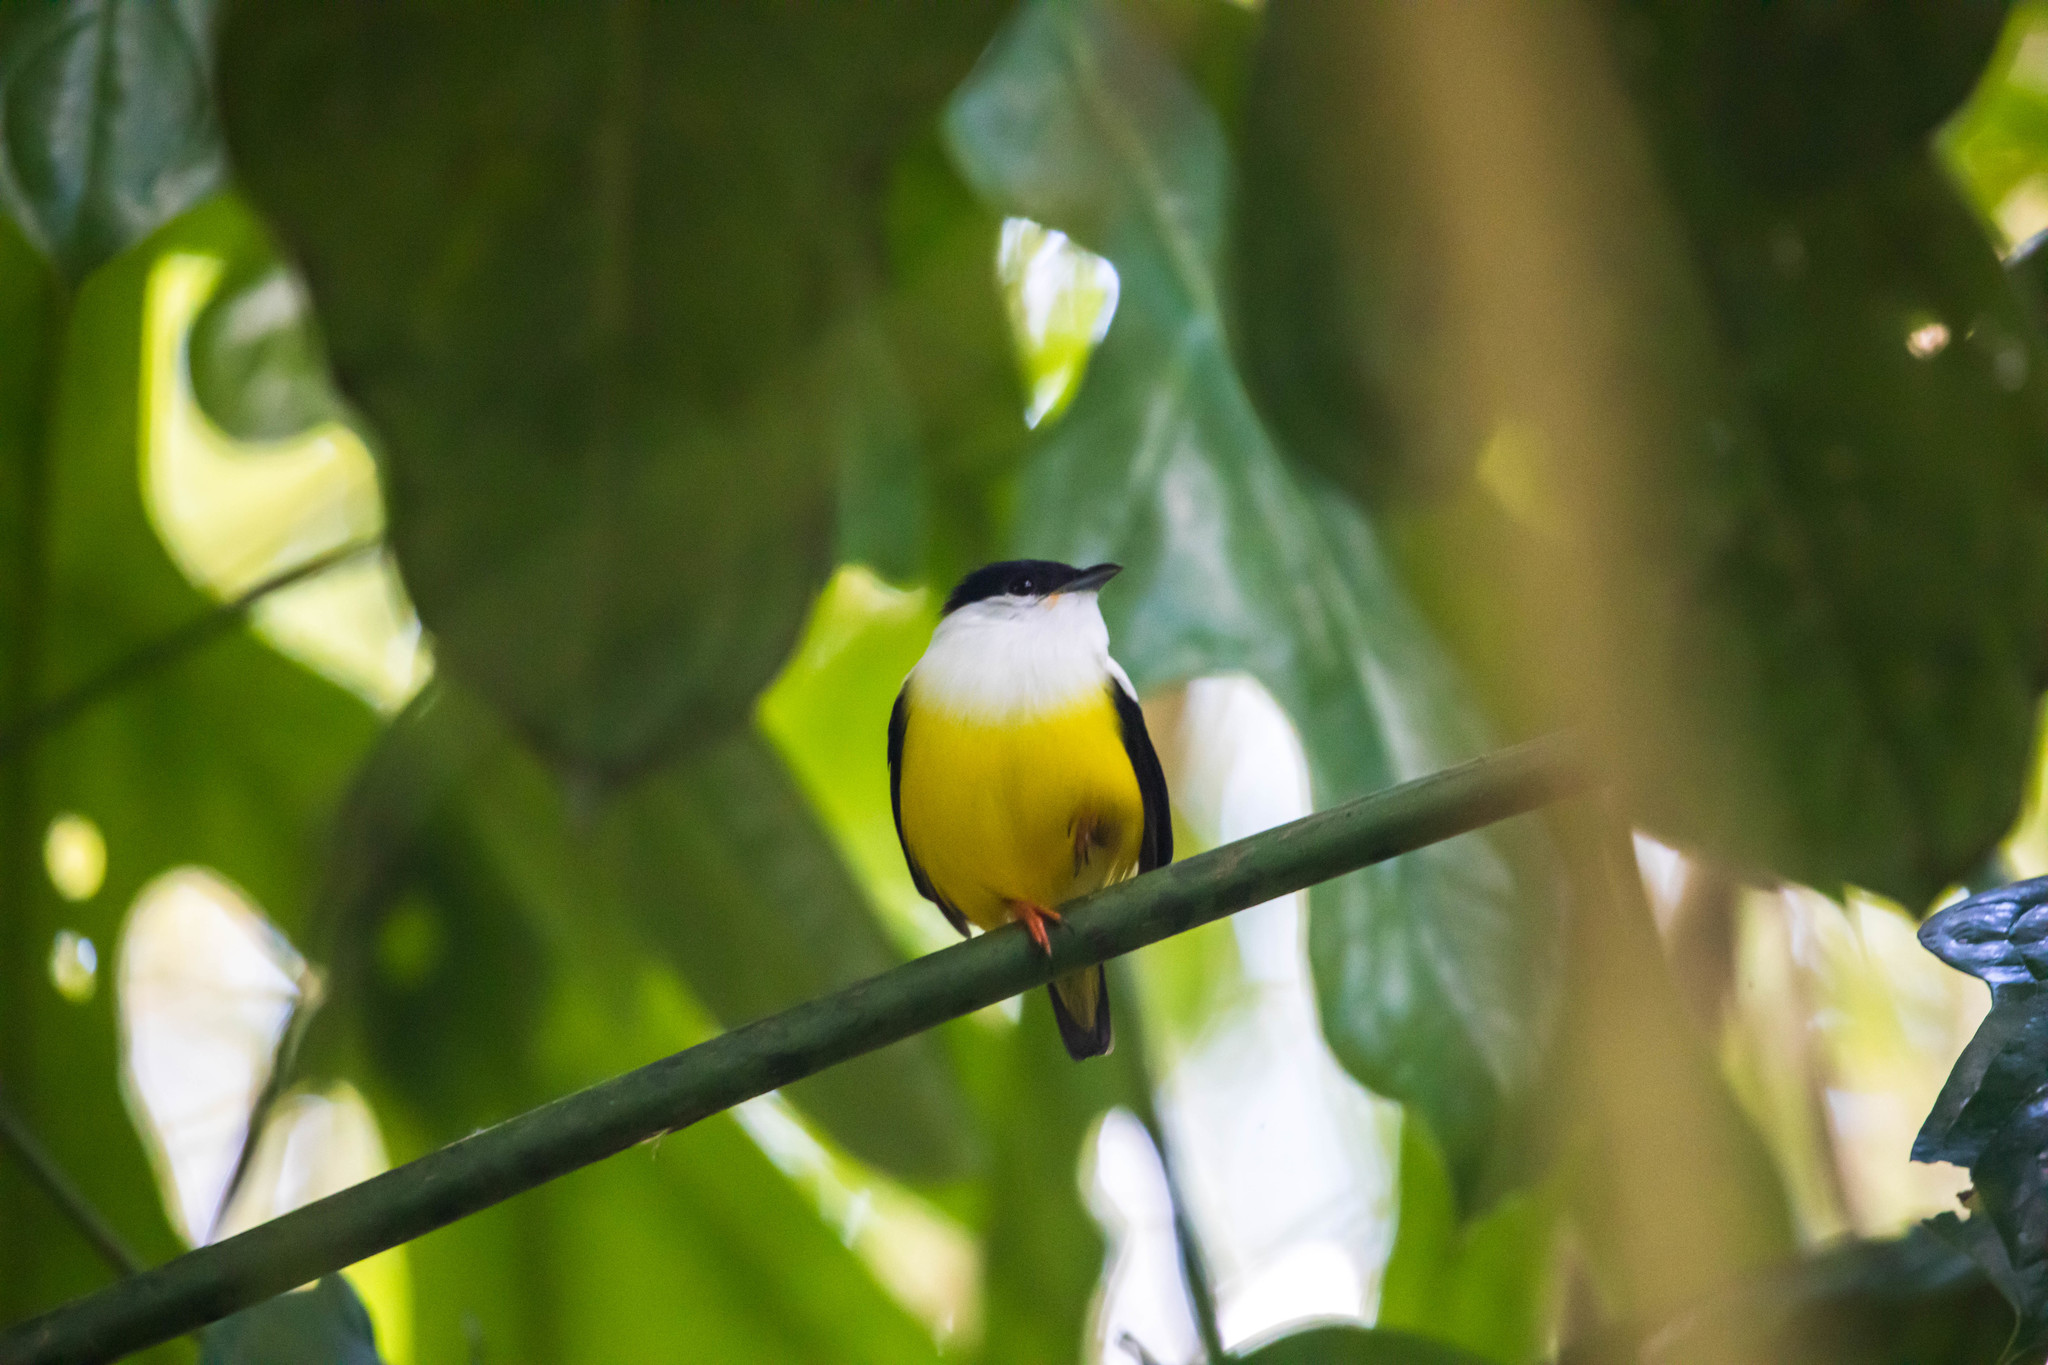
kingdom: Animalia
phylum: Chordata
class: Aves
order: Passeriformes
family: Pipridae
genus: Manacus
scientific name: Manacus candei
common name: White-collared manakin
